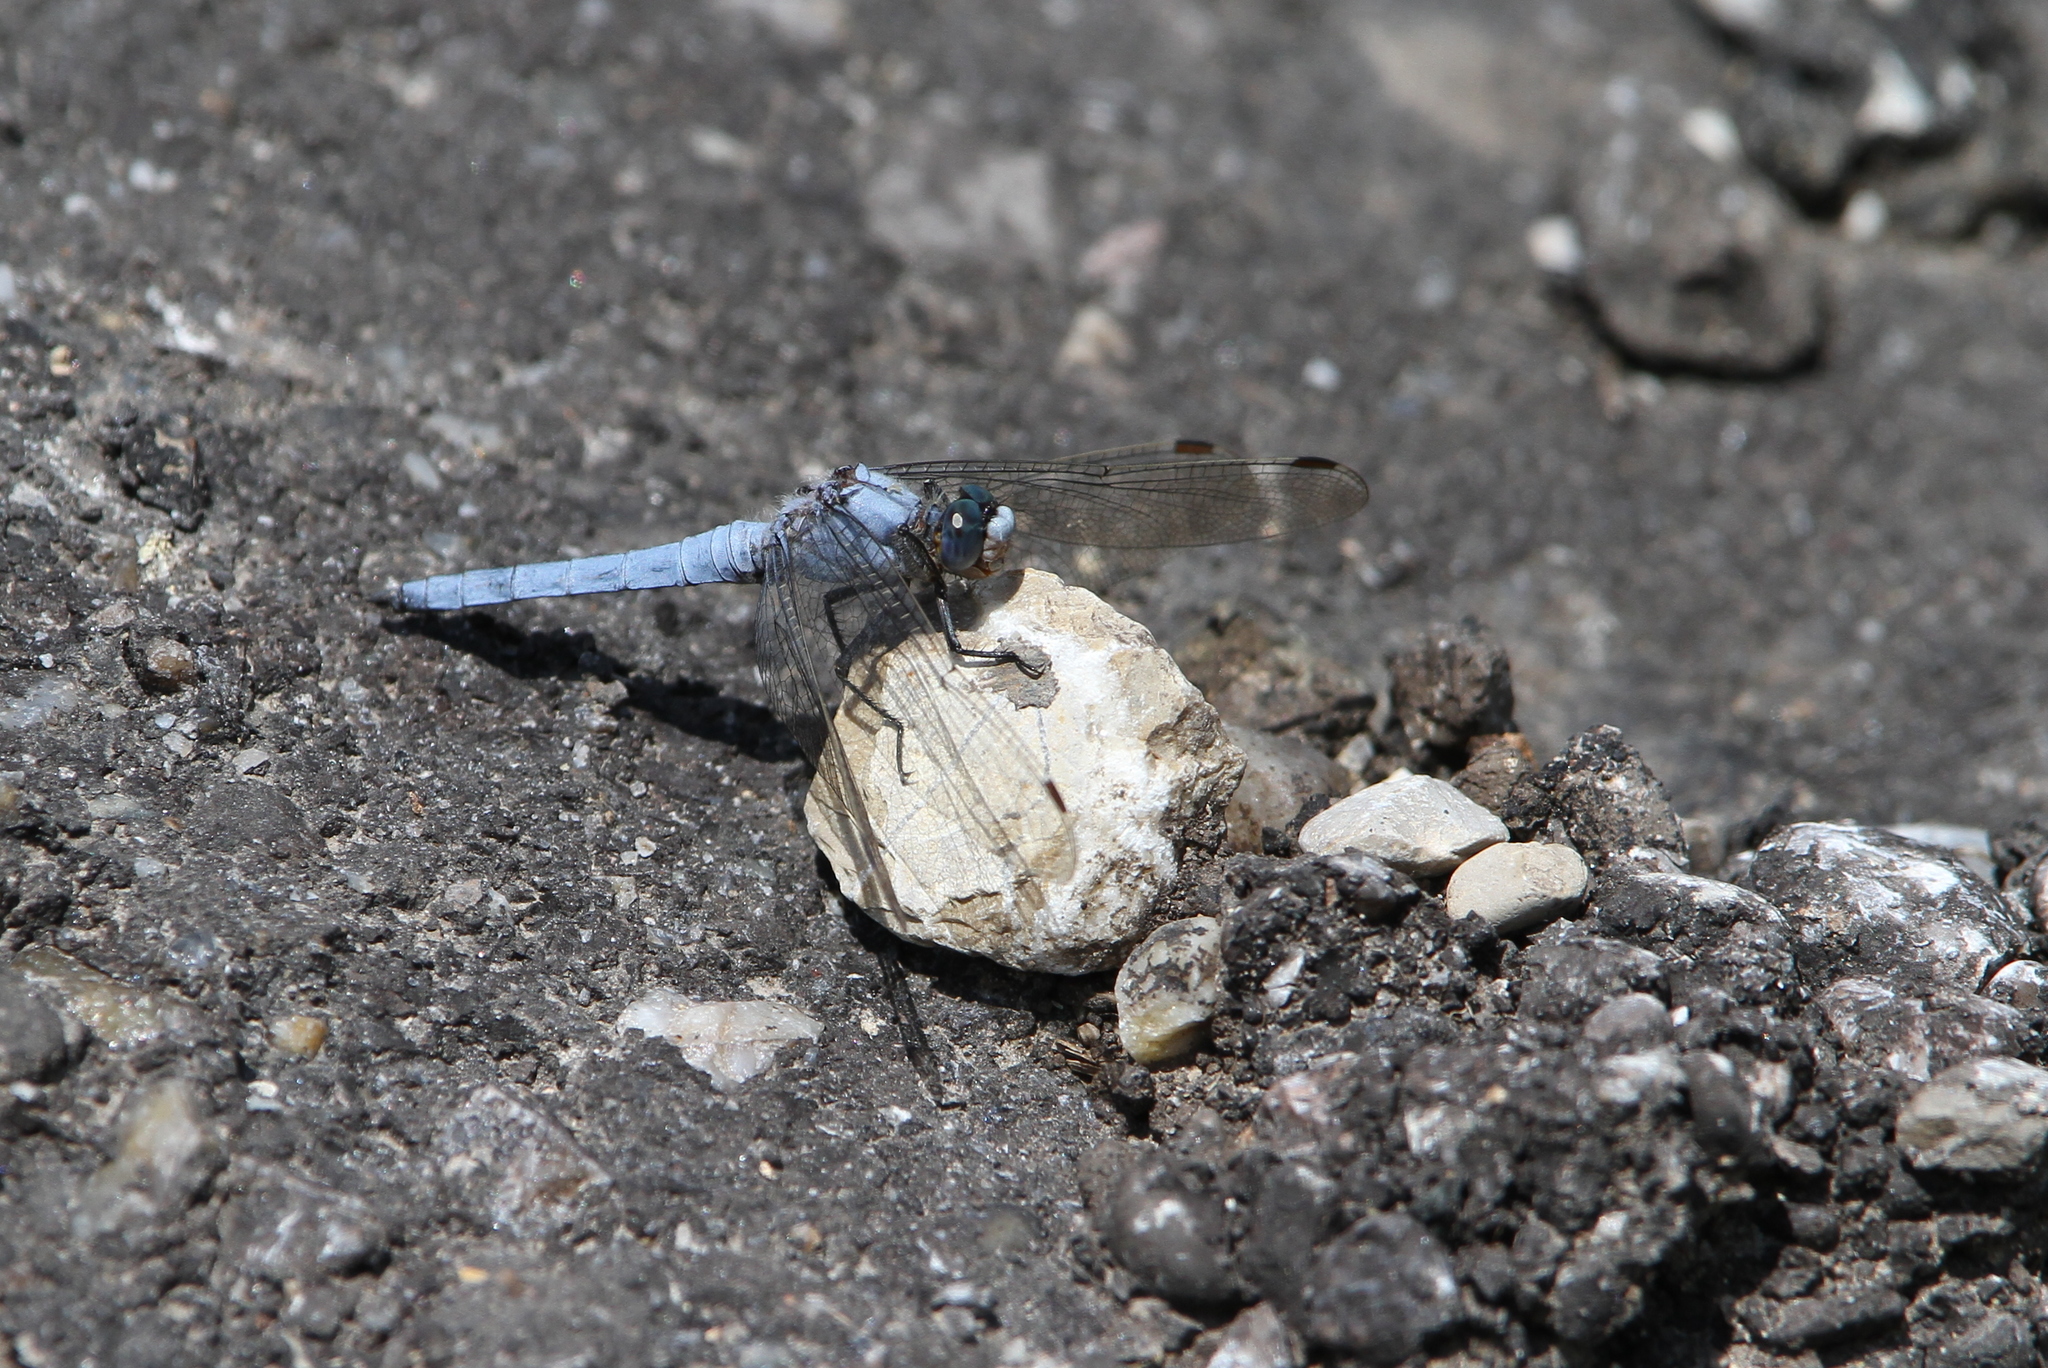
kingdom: Animalia
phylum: Arthropoda
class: Insecta
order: Odonata
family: Libellulidae
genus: Orthetrum
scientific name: Orthetrum brunneum
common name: Southern skimmer
